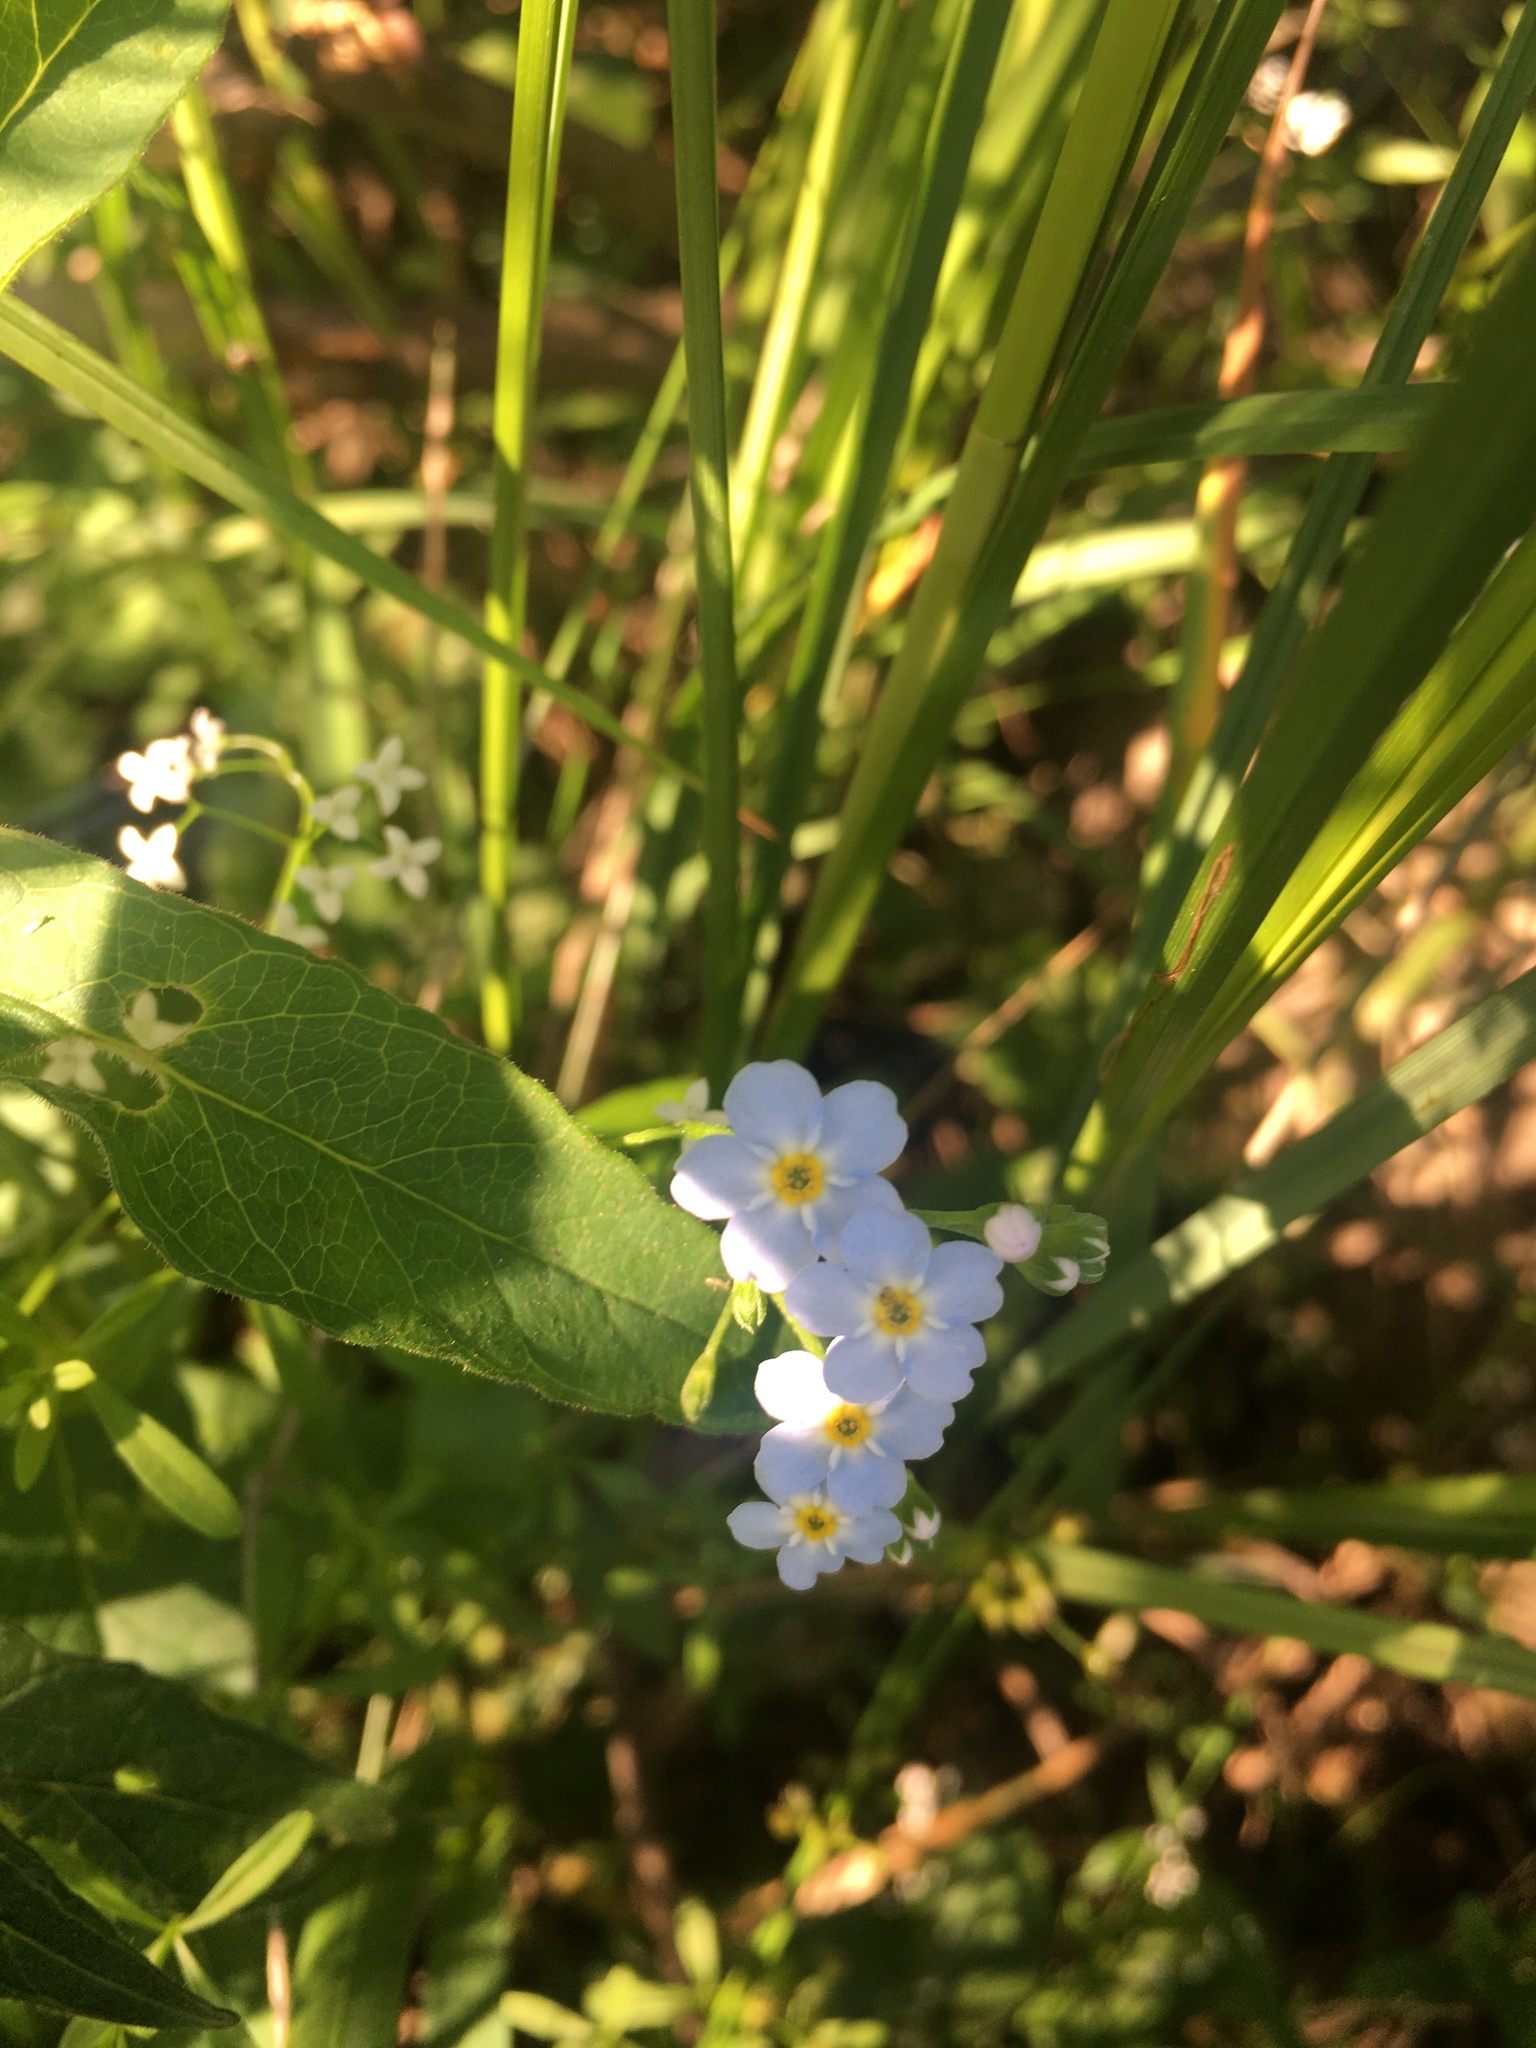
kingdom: Plantae
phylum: Tracheophyta
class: Magnoliopsida
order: Boraginales
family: Boraginaceae
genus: Myosotis
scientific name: Myosotis scorpioides
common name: Water forget-me-not
